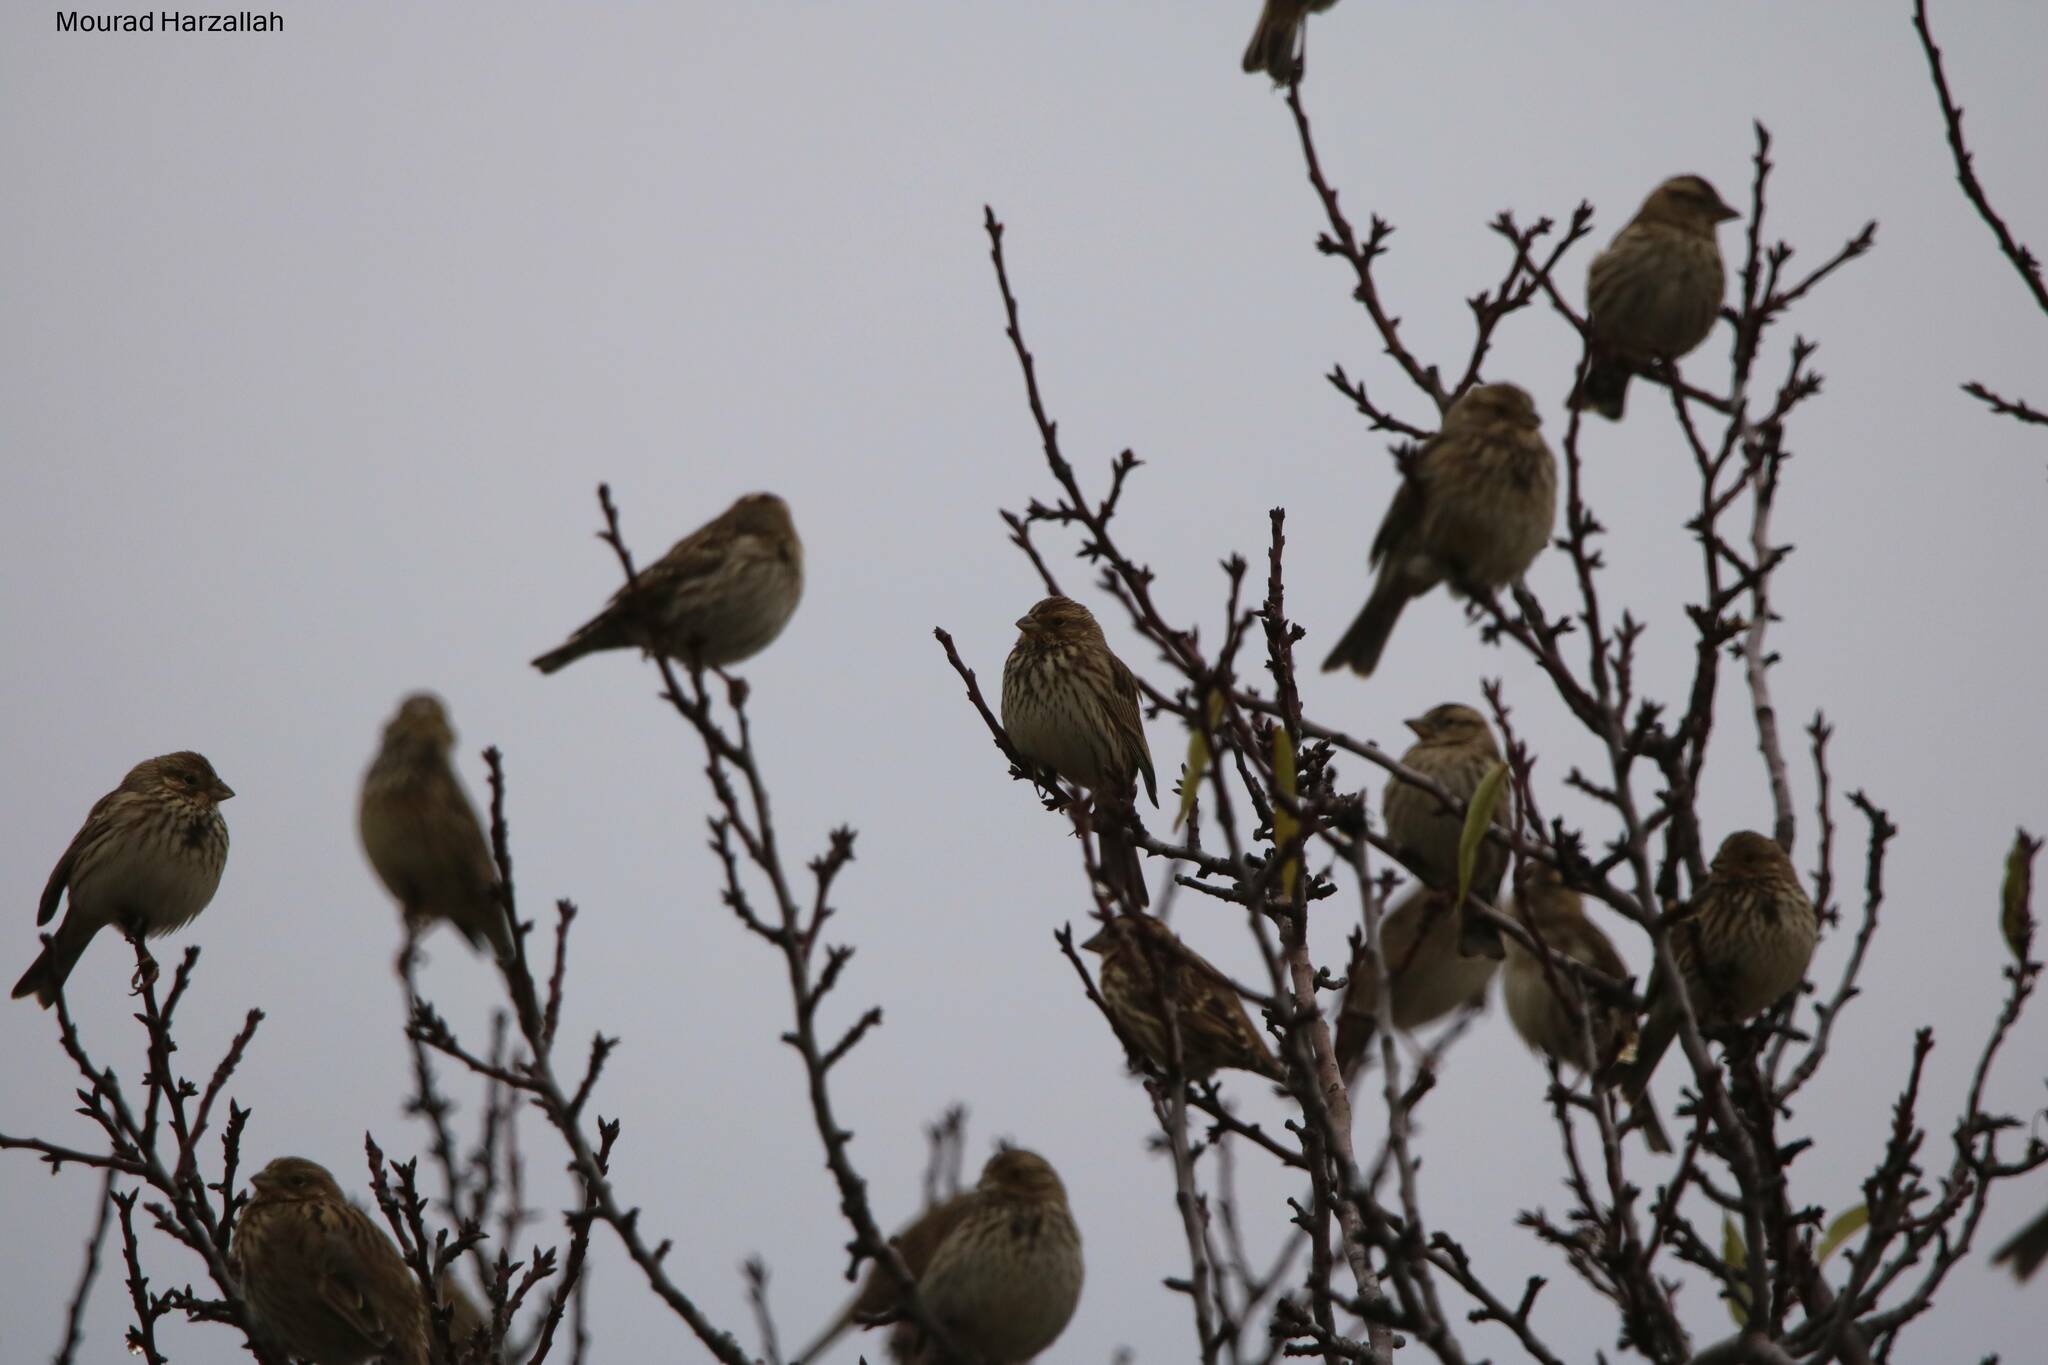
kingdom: Animalia
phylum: Chordata
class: Aves
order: Passeriformes
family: Emberizidae
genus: Emberiza
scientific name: Emberiza calandra
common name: Corn bunting
